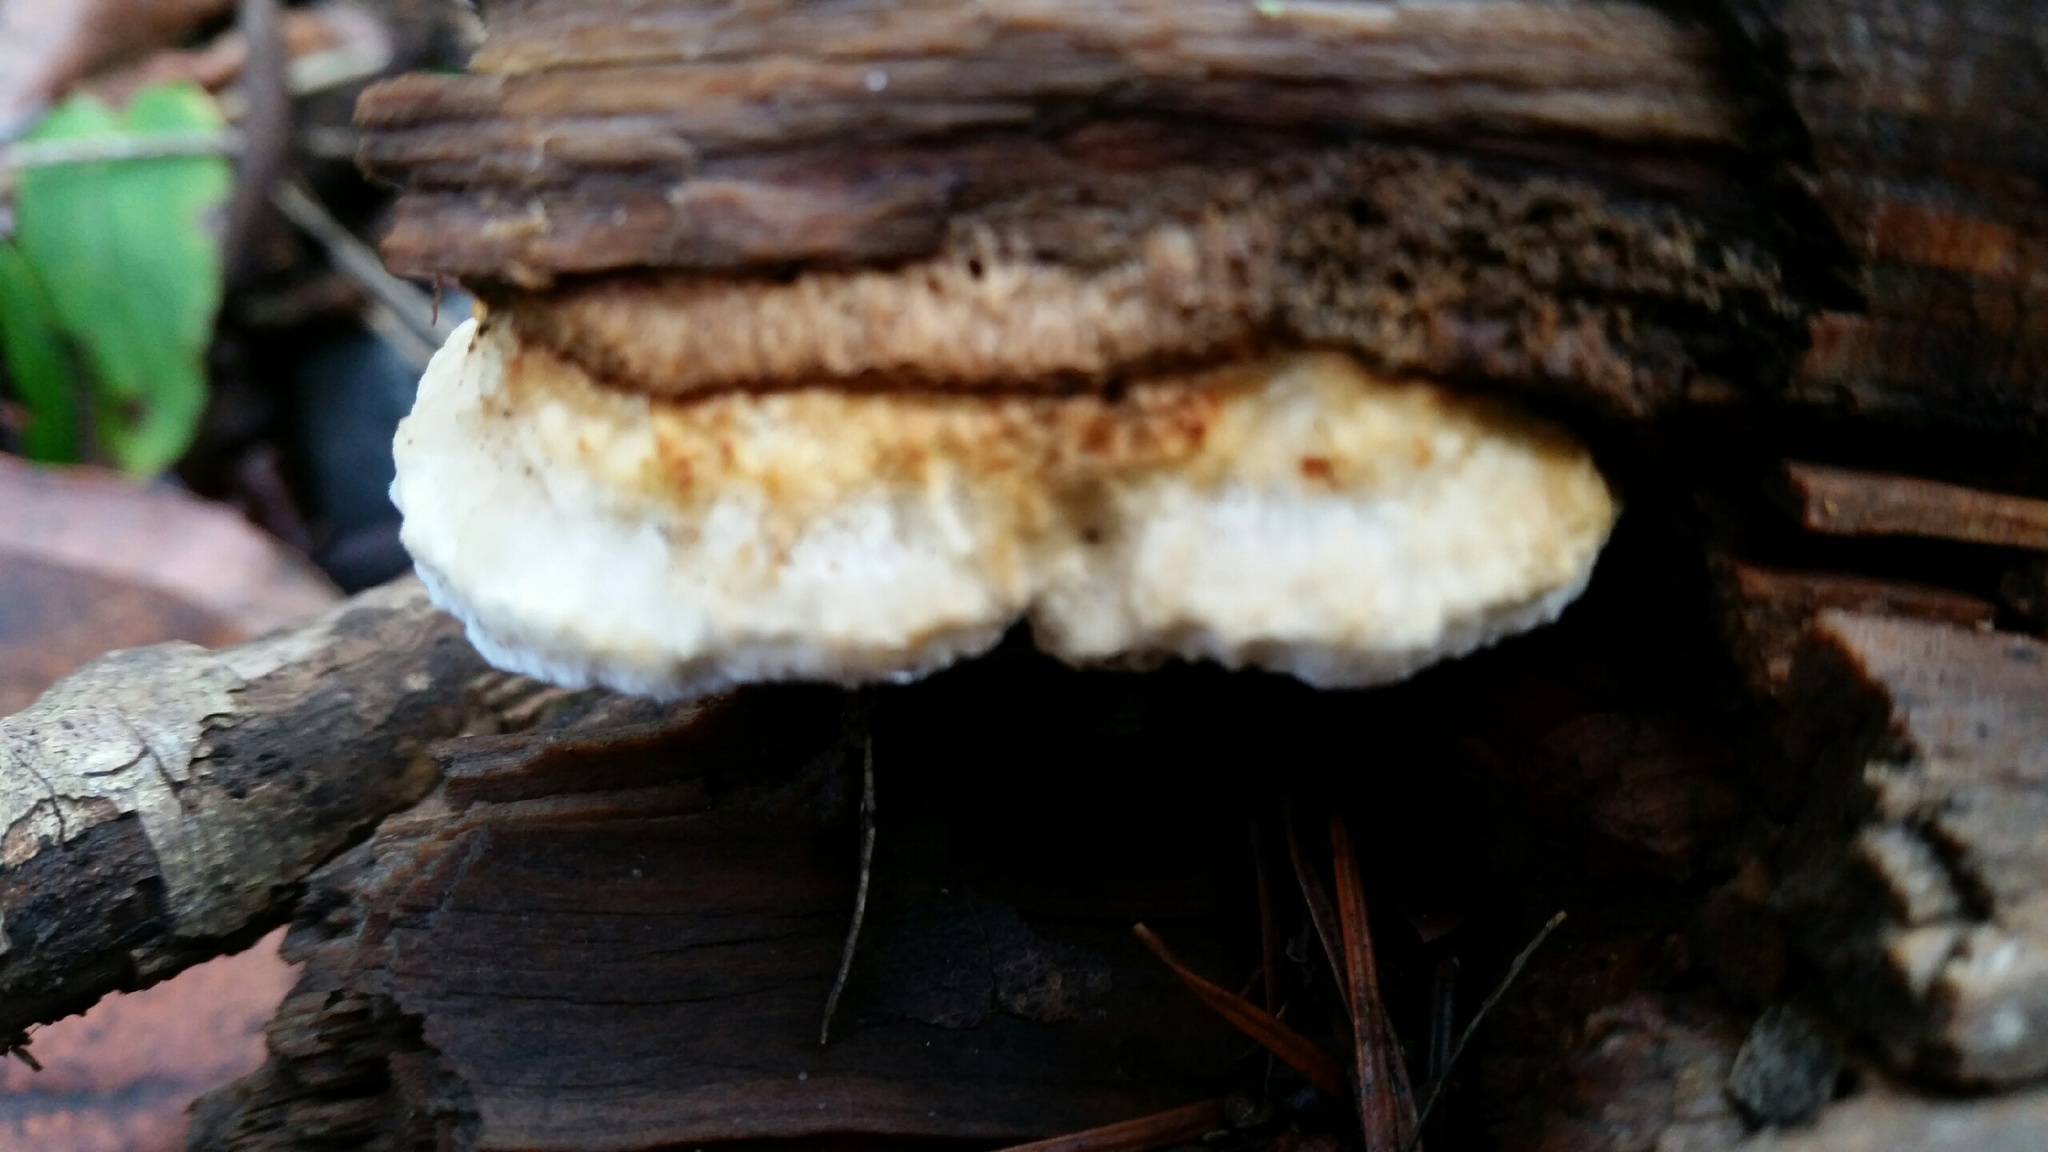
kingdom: Fungi
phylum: Basidiomycota
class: Agaricomycetes
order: Polyporales
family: Fomitopsidaceae
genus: Fomitopsis
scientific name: Fomitopsis
